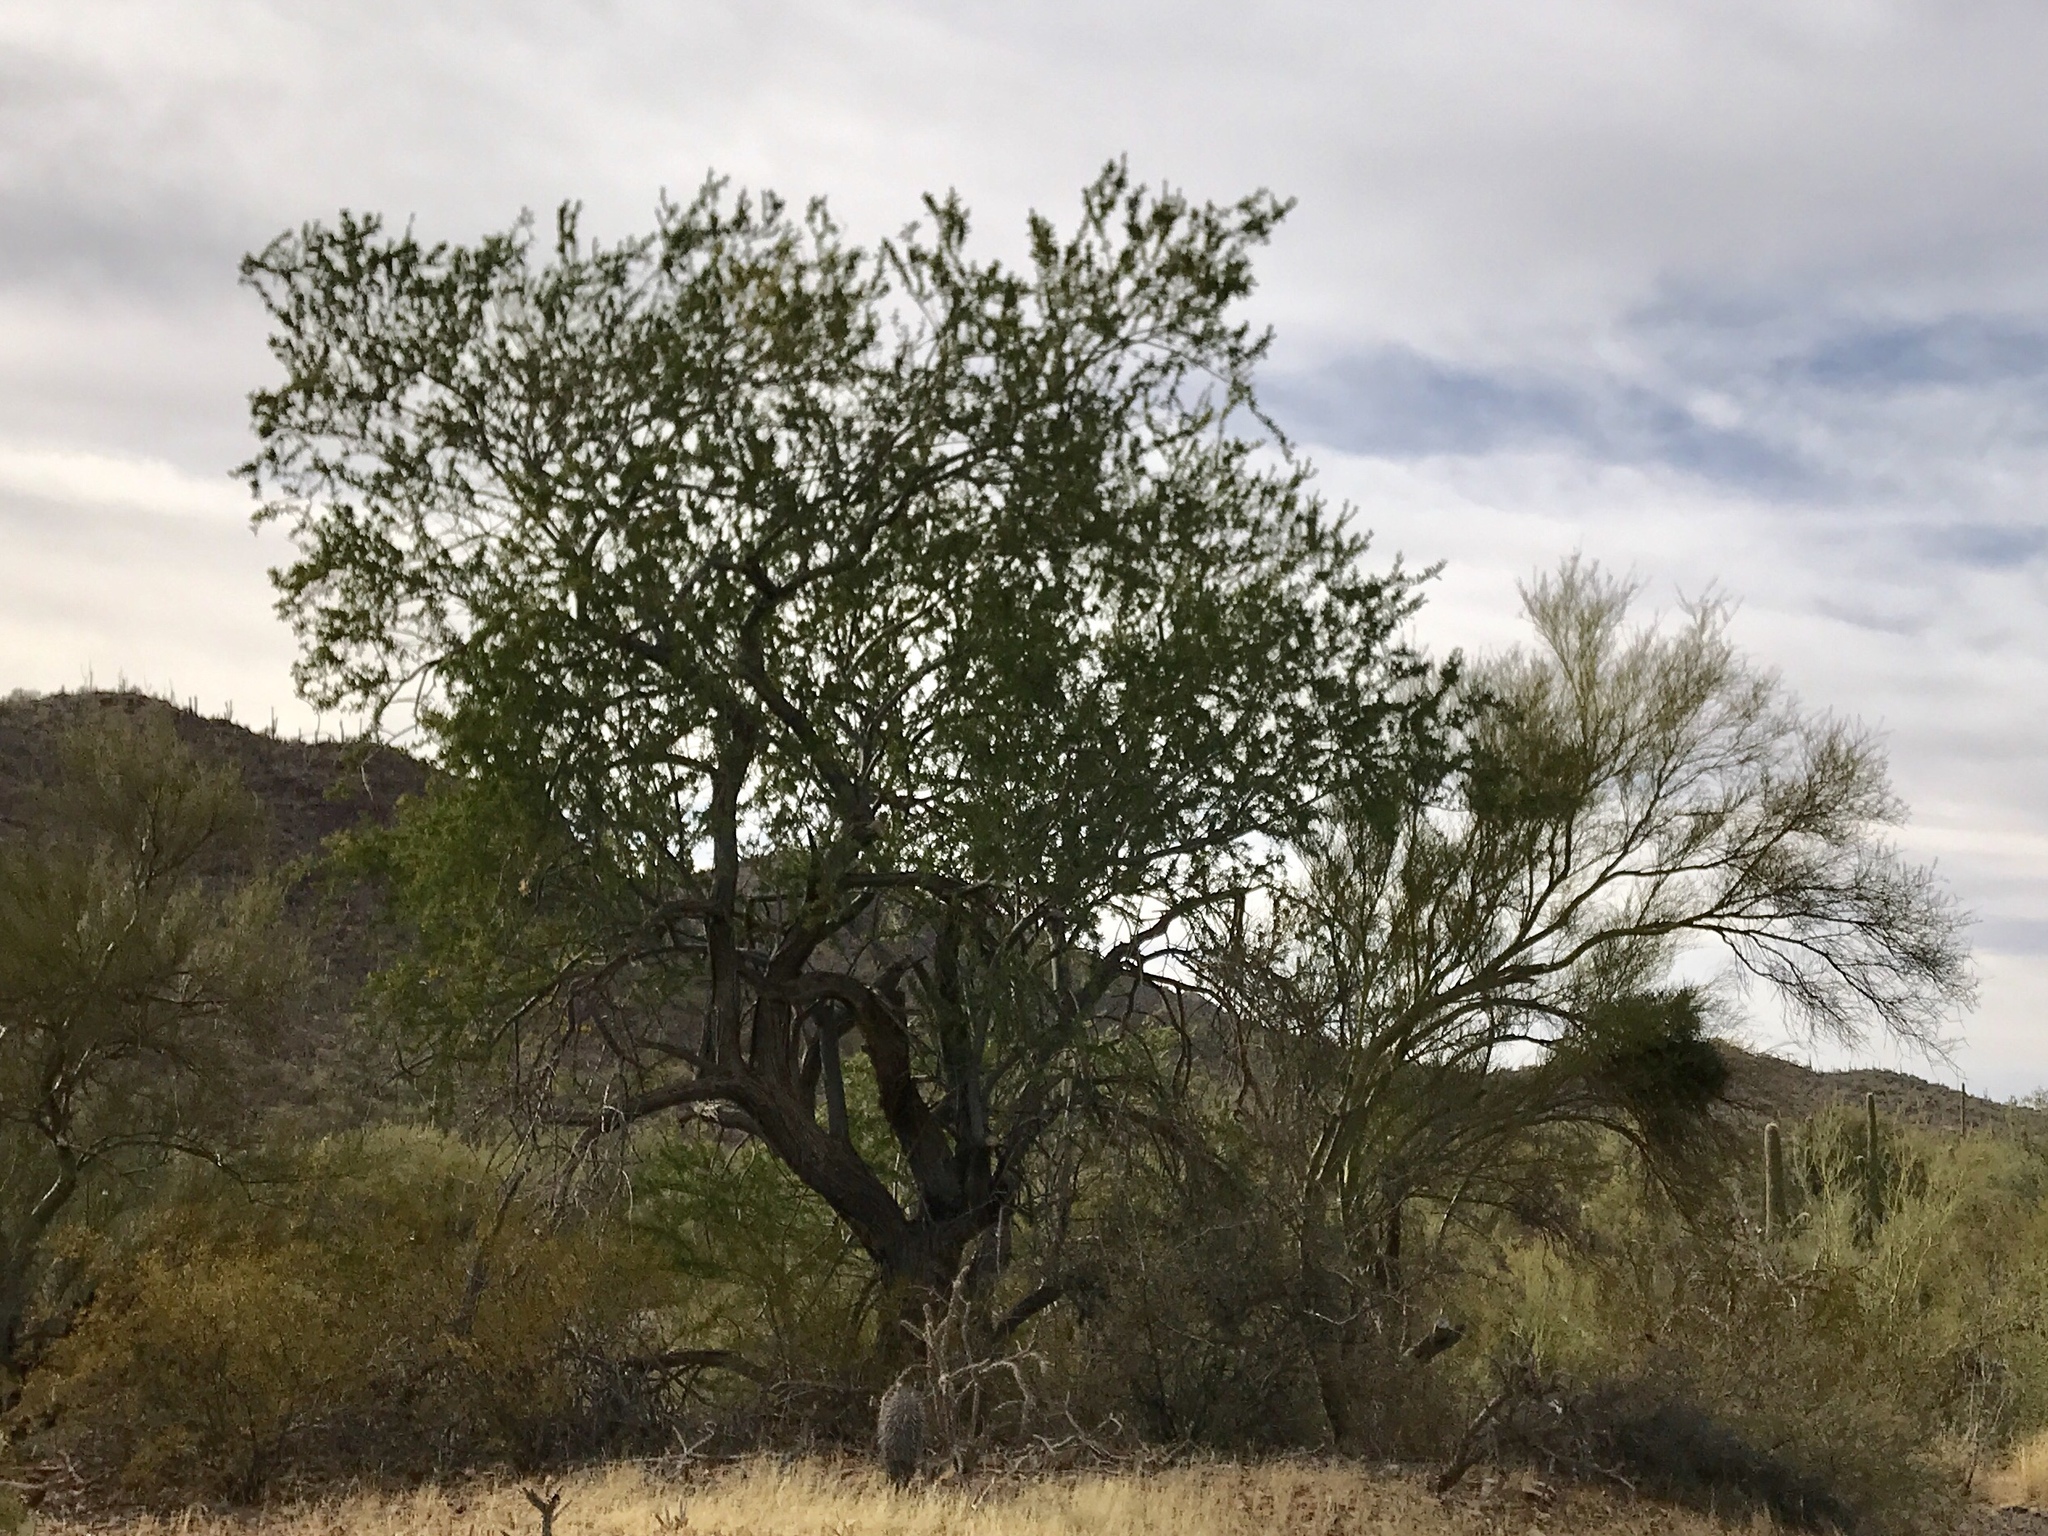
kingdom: Plantae
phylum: Tracheophyta
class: Magnoliopsida
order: Fabales
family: Fabaceae
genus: Olneya
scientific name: Olneya tesota
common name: Desert ironwood
